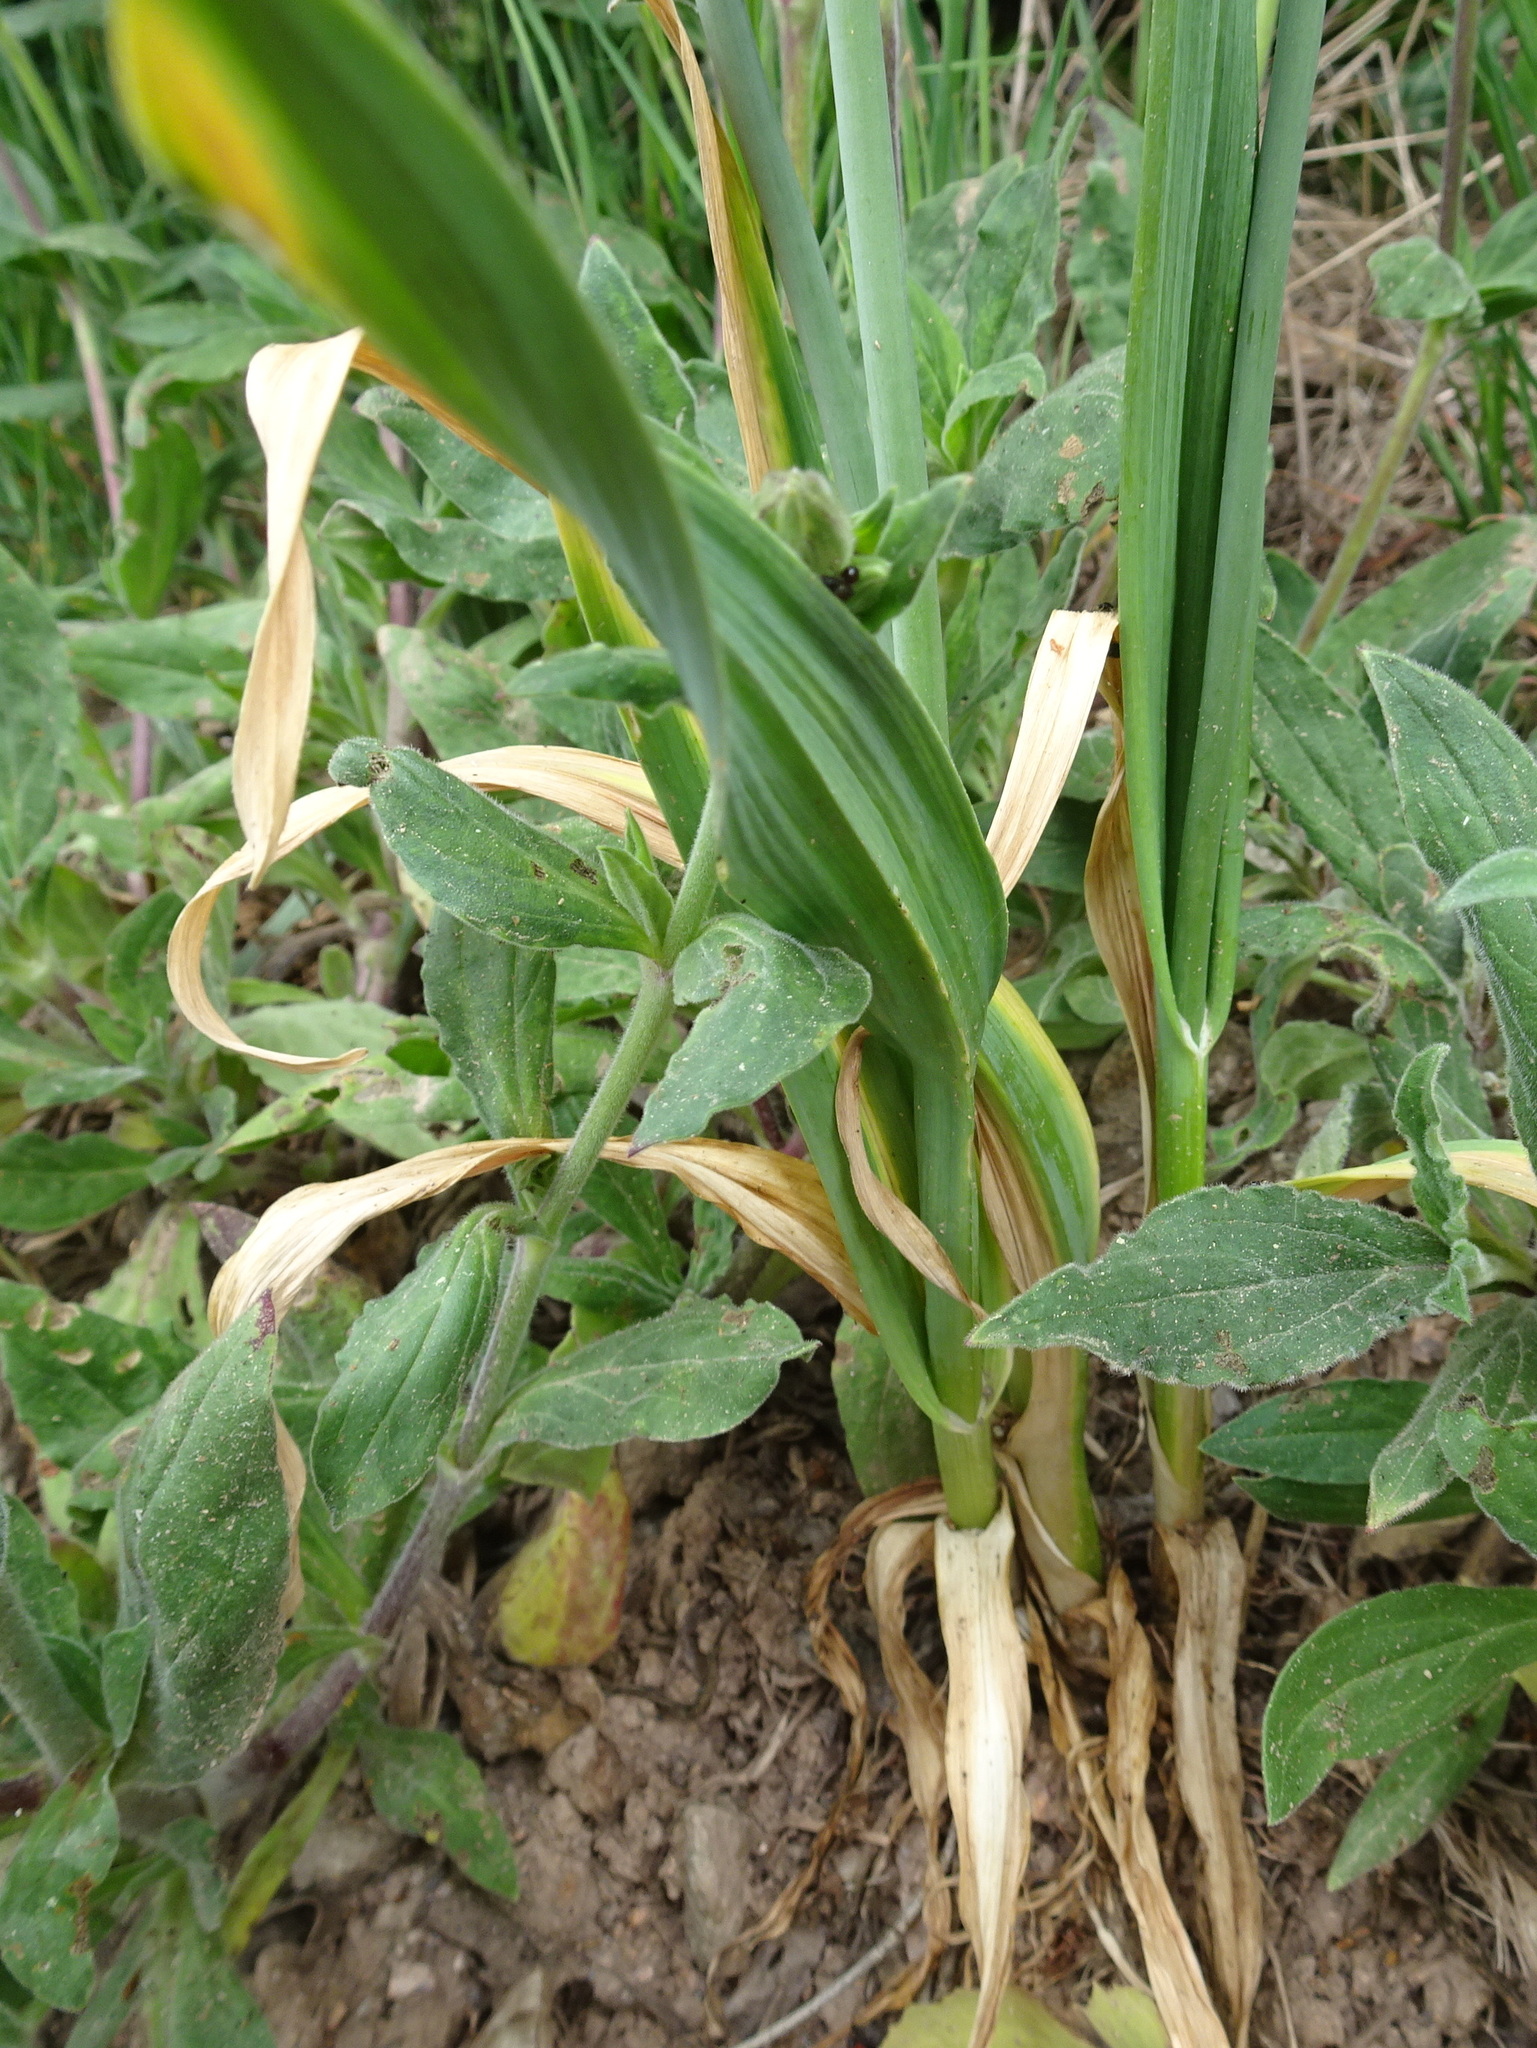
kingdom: Plantae
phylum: Tracheophyta
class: Liliopsida
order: Asparagales
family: Amaryllidaceae
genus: Allium
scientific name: Allium scorodoprasum
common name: Sand leek
